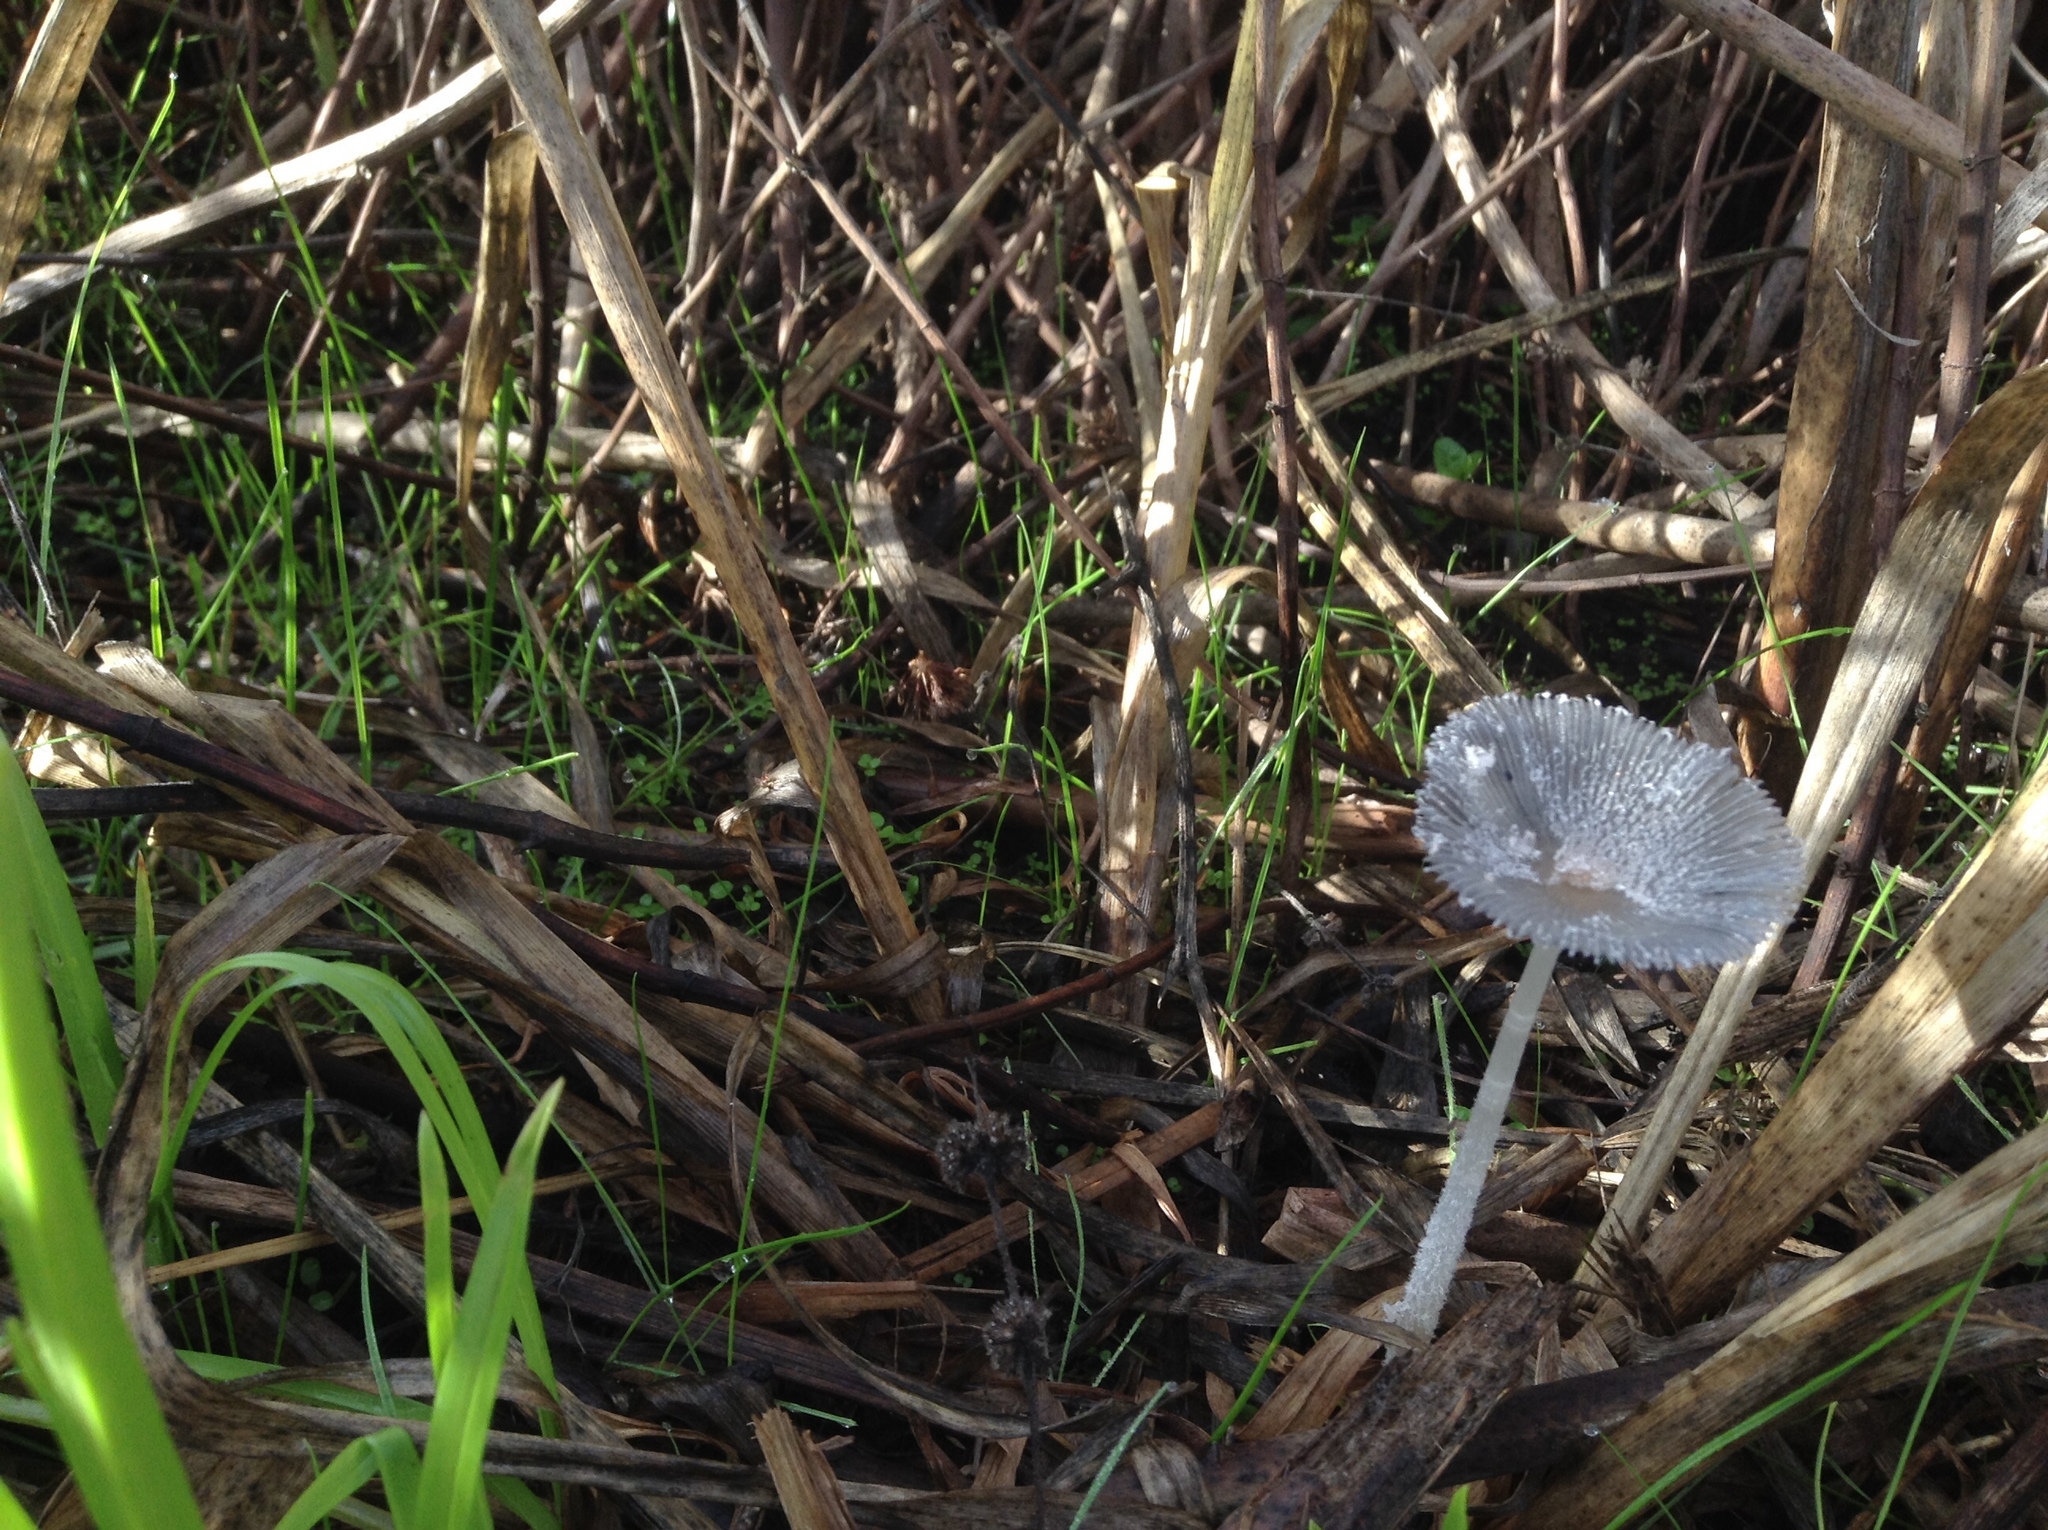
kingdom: Fungi
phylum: Basidiomycota
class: Agaricomycetes
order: Agaricales
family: Psathyrellaceae
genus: Coprinopsis
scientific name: Coprinopsis lagopus
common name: Hare'sfoot inkcap
